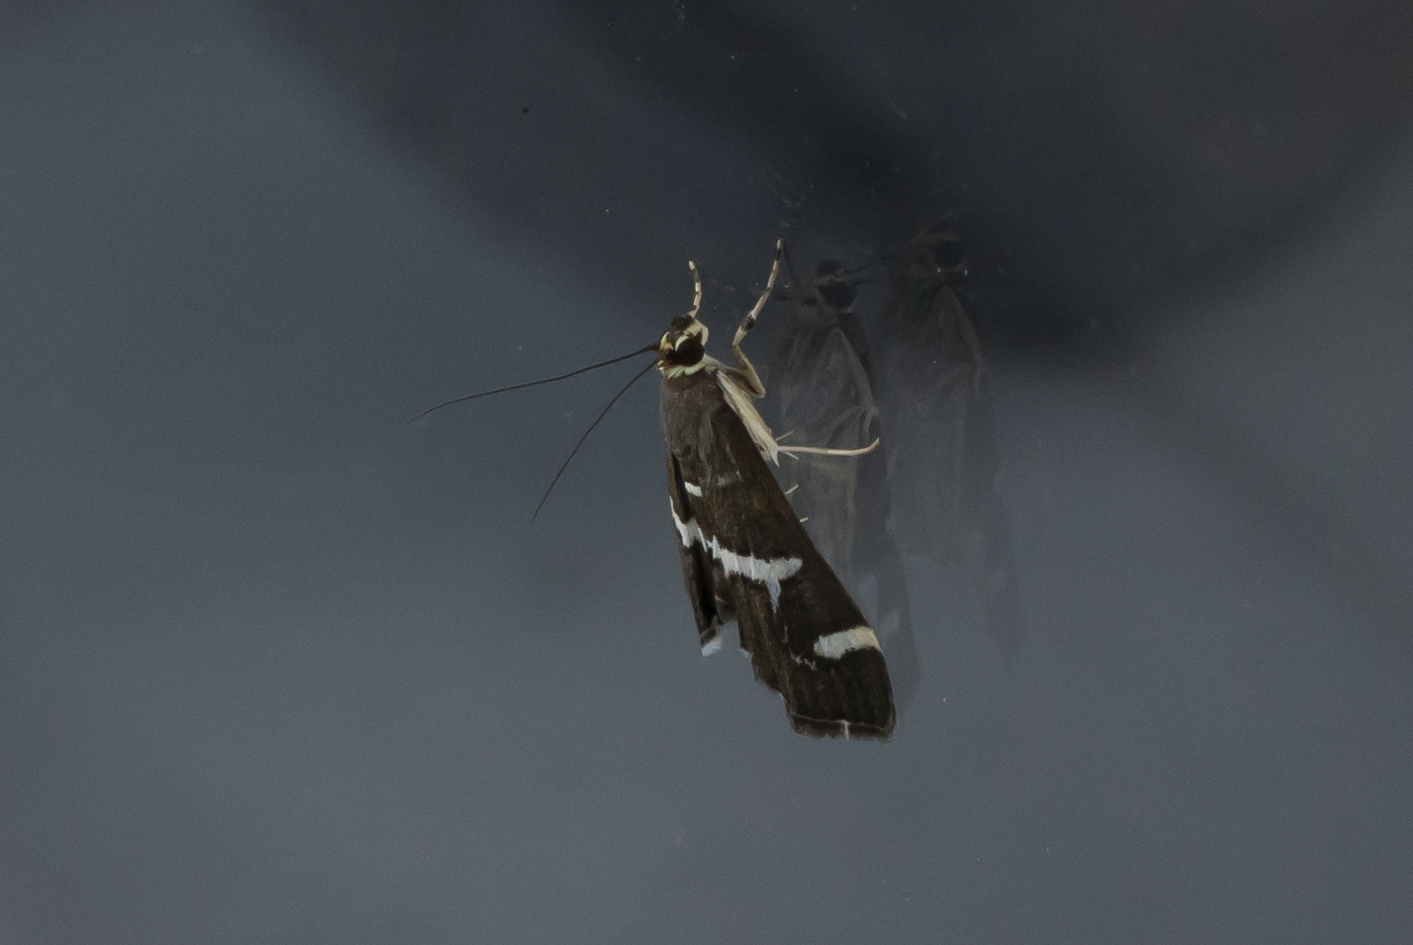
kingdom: Animalia
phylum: Arthropoda
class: Insecta
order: Lepidoptera
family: Crambidae
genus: Spoladea
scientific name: Spoladea recurvalis
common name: Beet webworm moth
